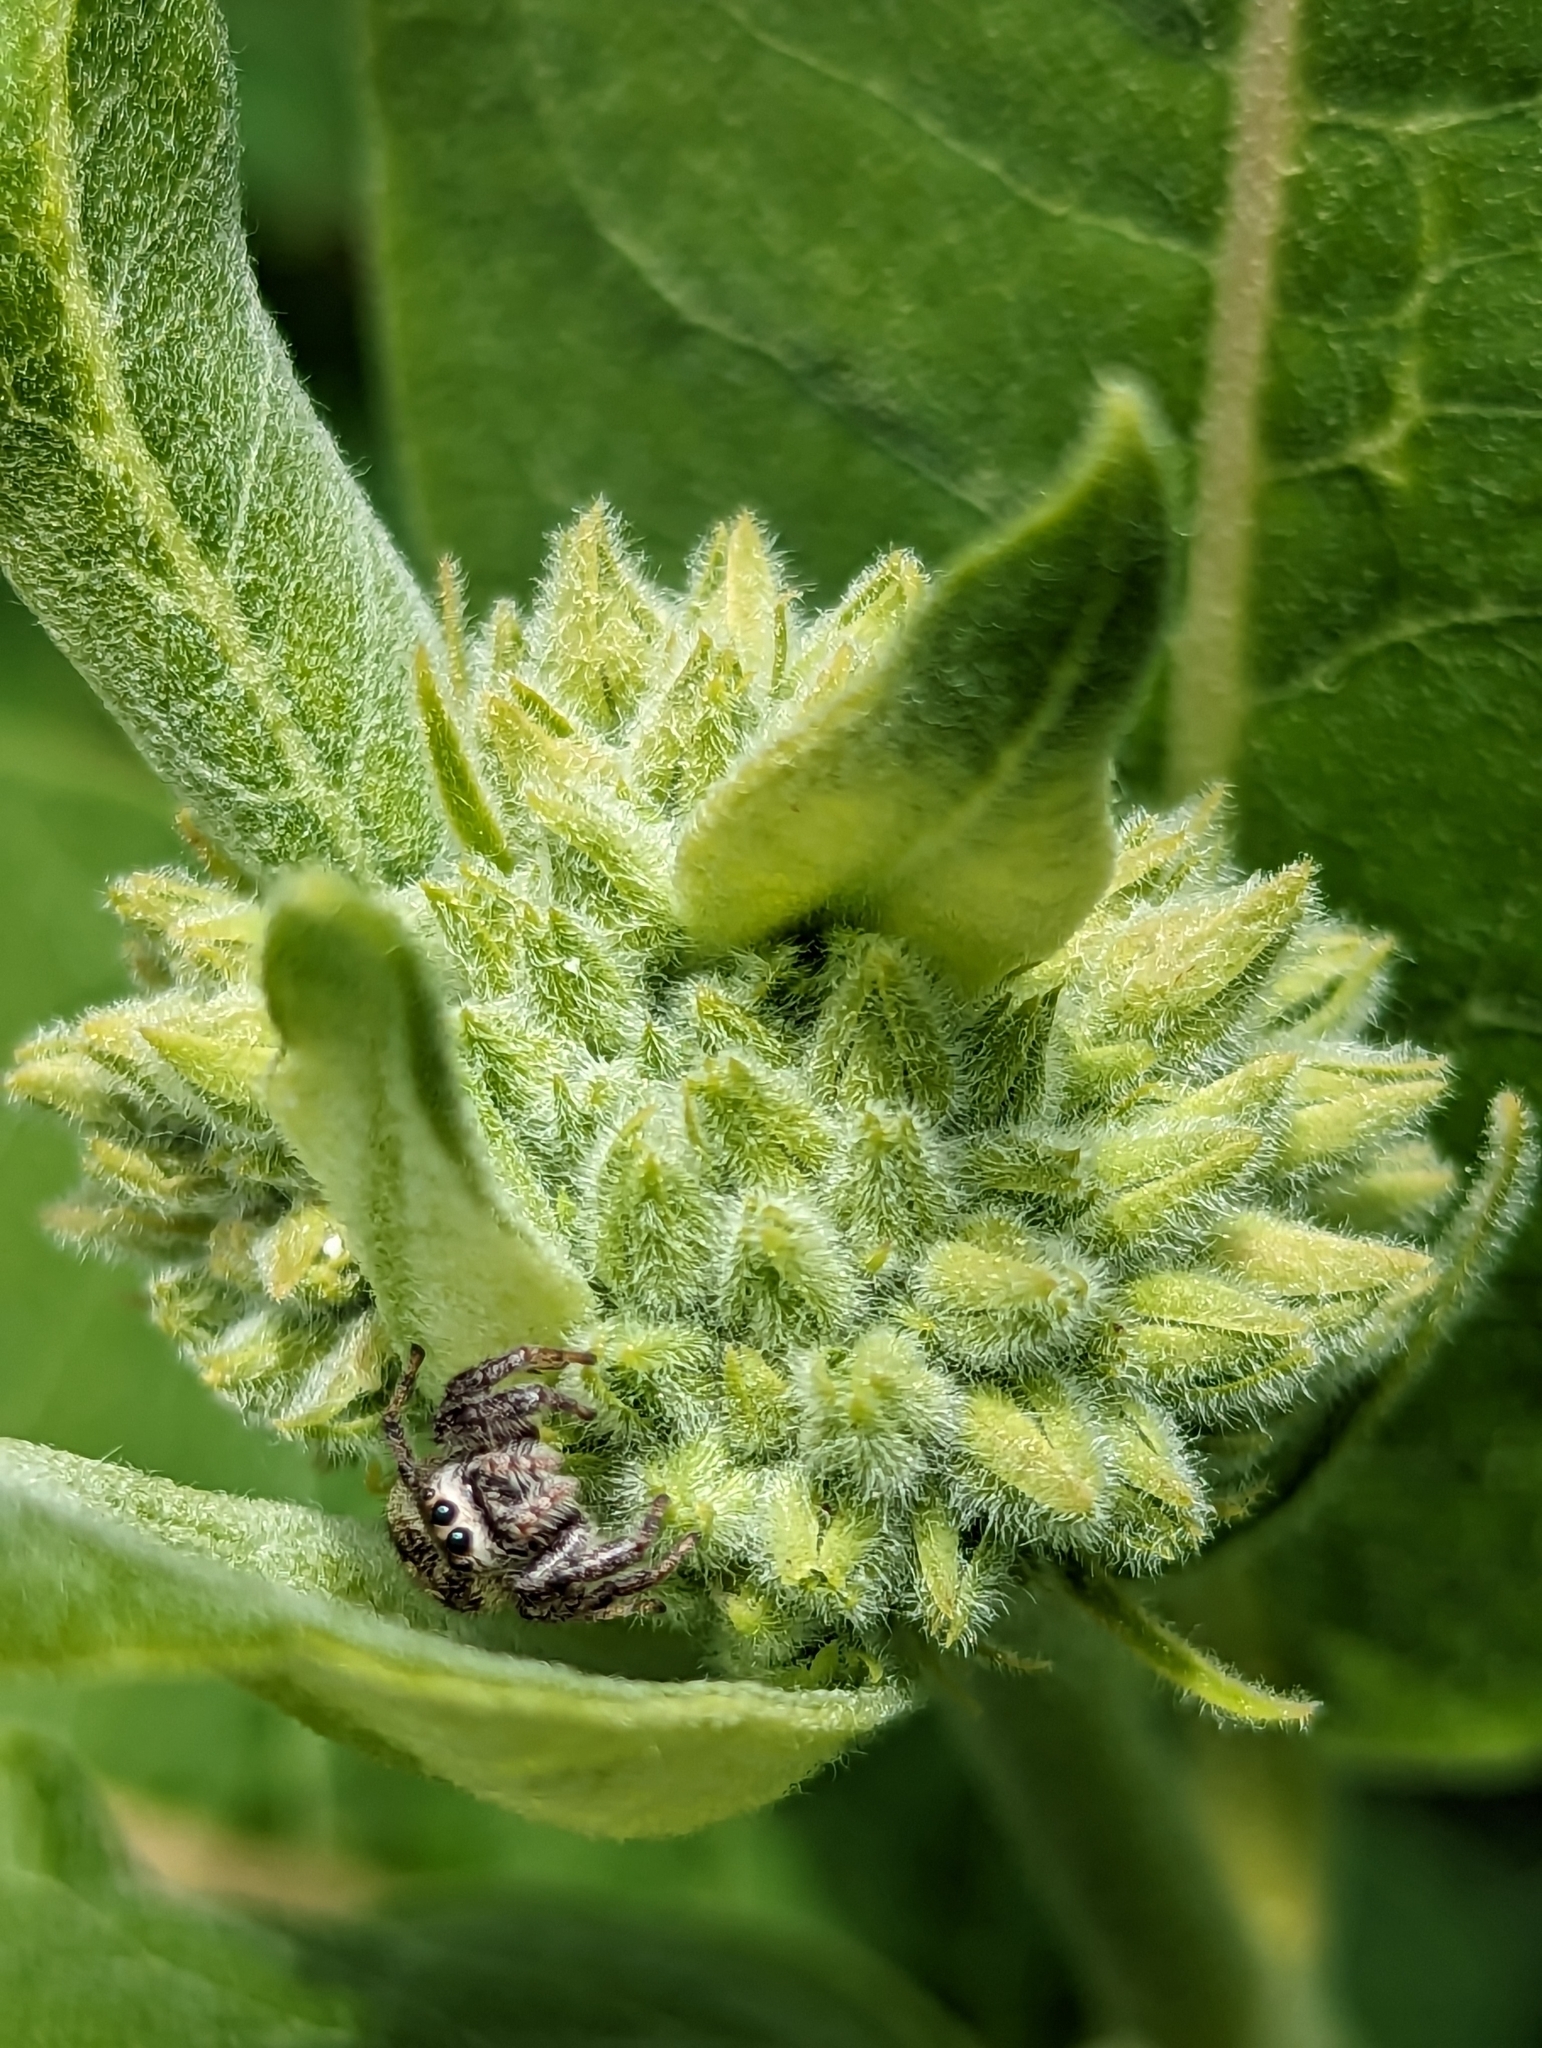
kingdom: Animalia
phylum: Arthropoda
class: Arachnida
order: Araneae
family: Salticidae
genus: Eris
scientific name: Eris militaris
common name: Bronze jumper
